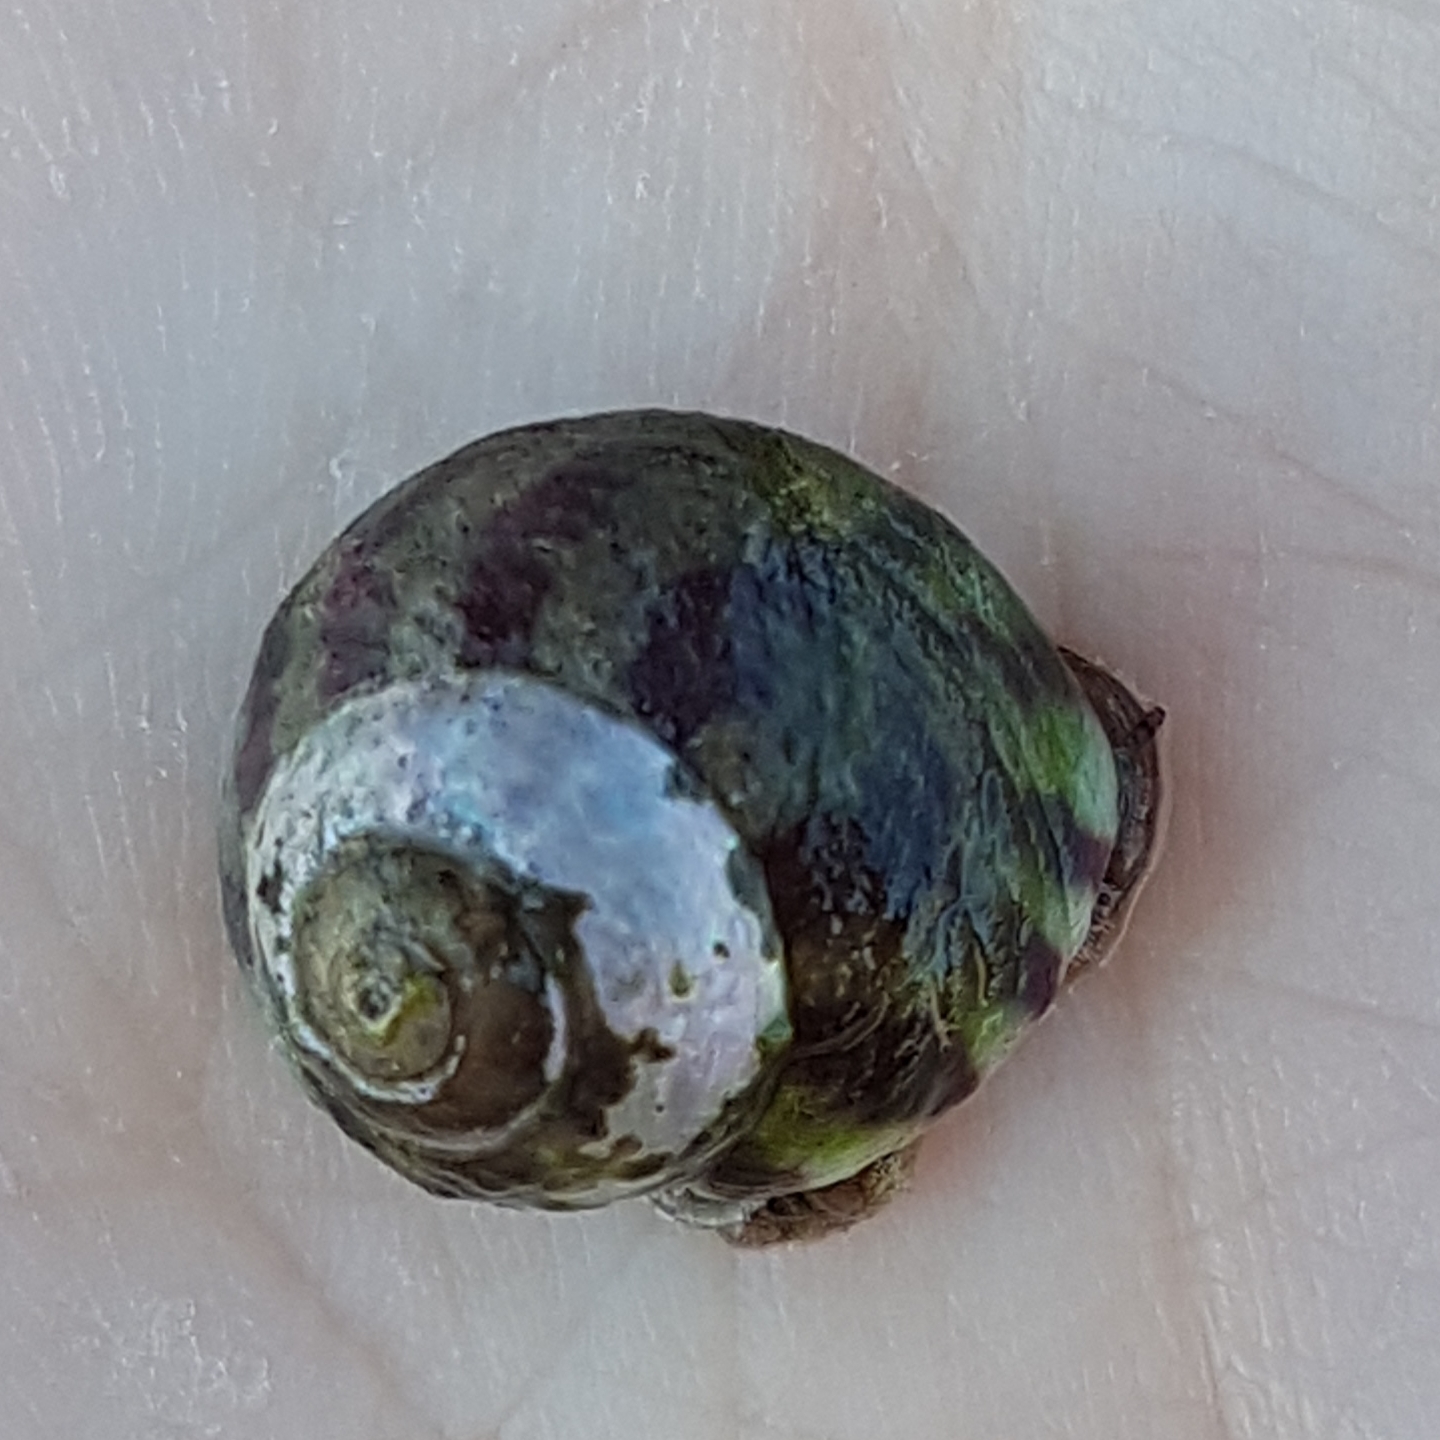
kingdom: Animalia
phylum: Mollusca
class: Gastropoda
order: Trochida
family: Trochidae
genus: Steromphala
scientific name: Steromphala umbilicalis
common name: Flat top shell
